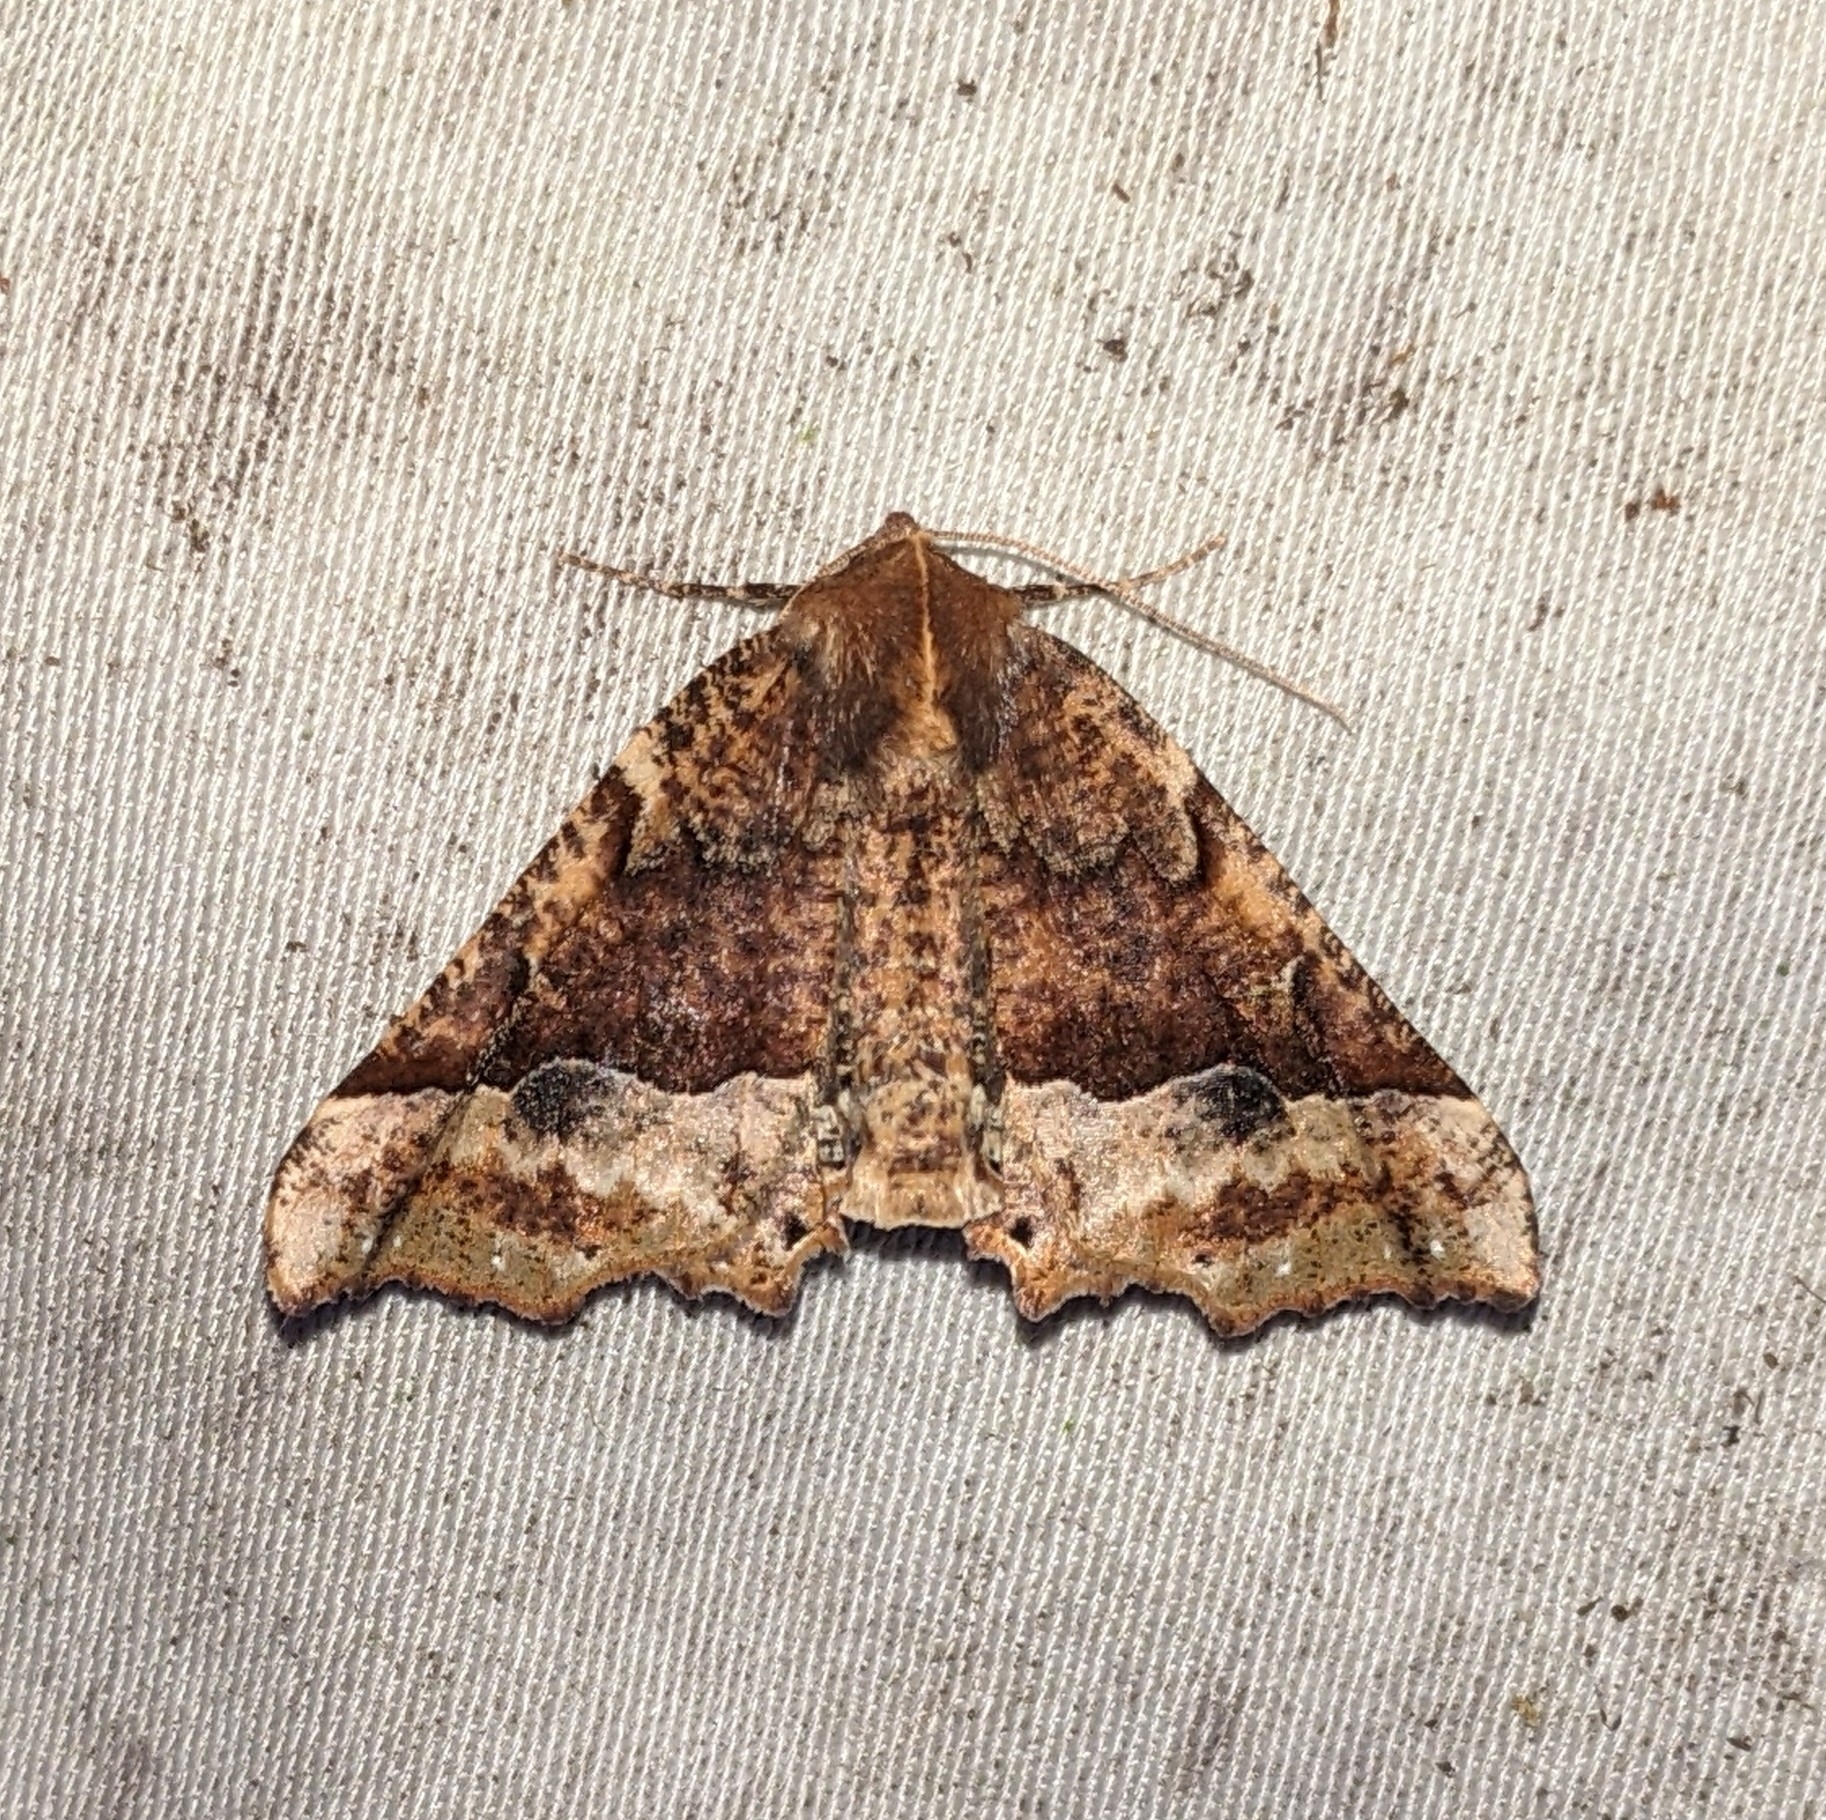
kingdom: Animalia
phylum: Arthropoda
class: Insecta
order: Lepidoptera
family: Geometridae
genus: Pero
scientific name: Pero morrisonaria
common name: Morrison's pero
